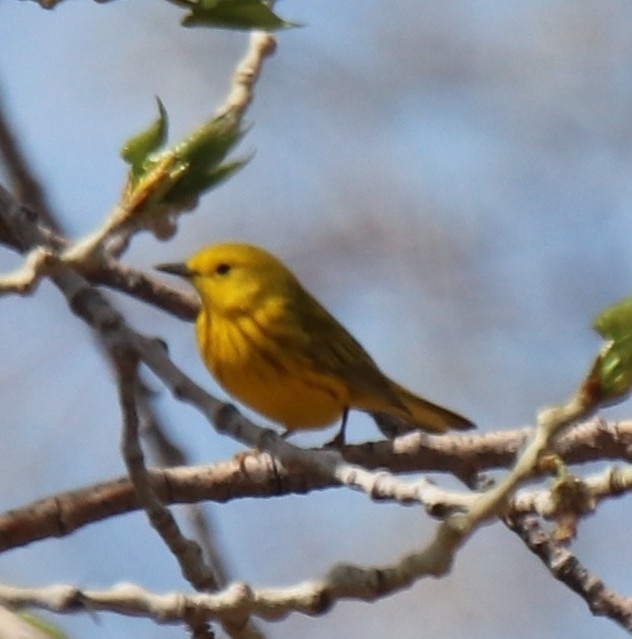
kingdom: Animalia
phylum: Chordata
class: Aves
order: Passeriformes
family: Parulidae
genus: Setophaga
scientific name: Setophaga petechia
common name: Yellow warbler
